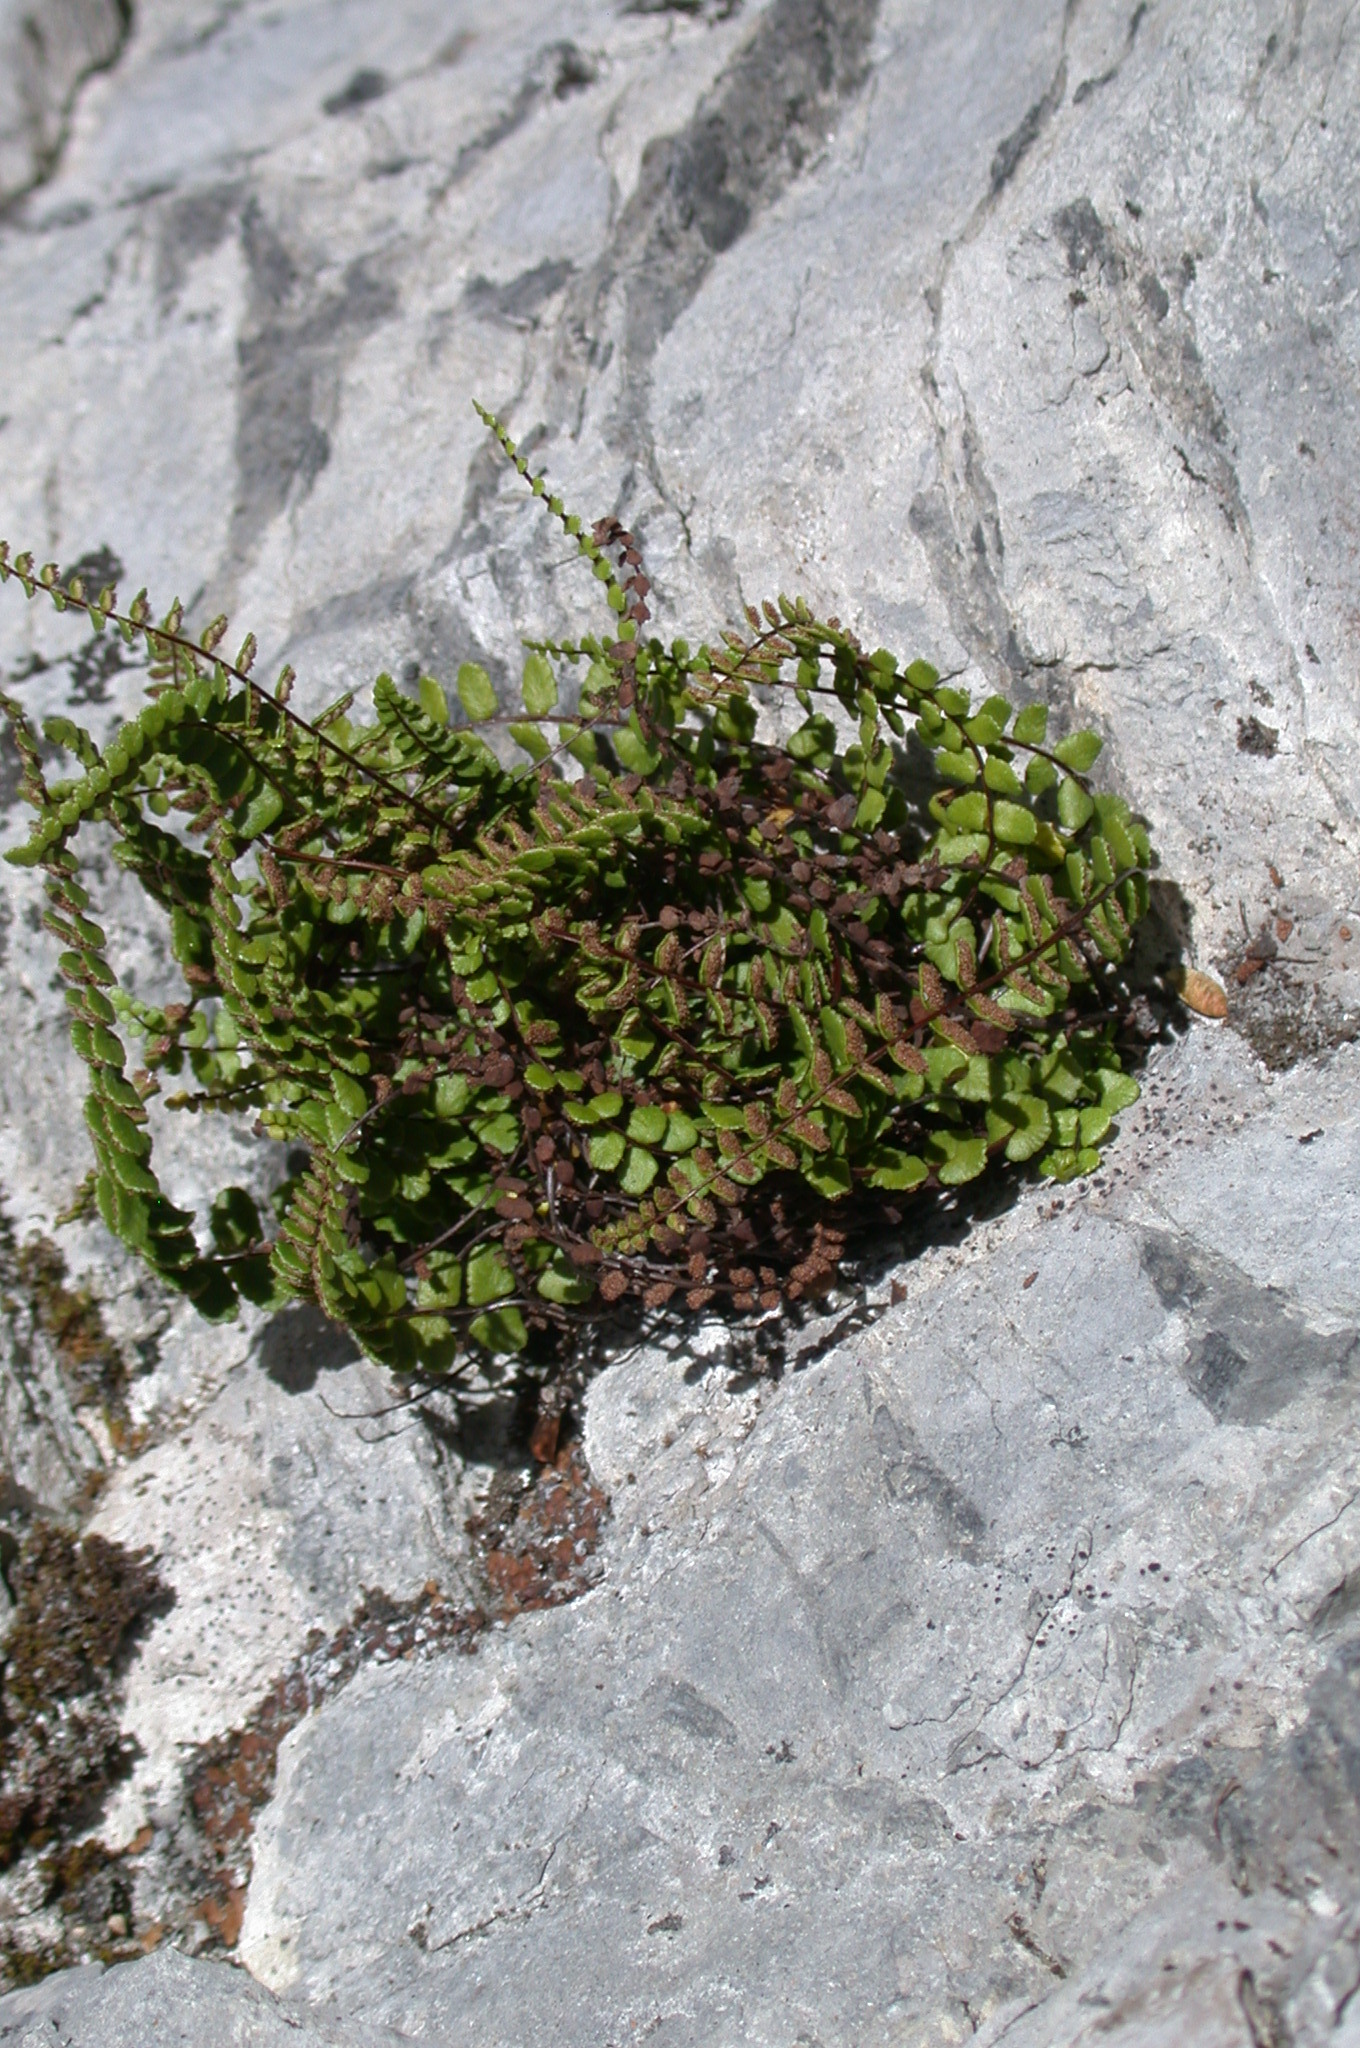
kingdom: Plantae
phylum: Tracheophyta
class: Polypodiopsida
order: Polypodiales
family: Aspleniaceae
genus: Asplenium
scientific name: Asplenium trichomanes
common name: Maidenhair spleenwort
